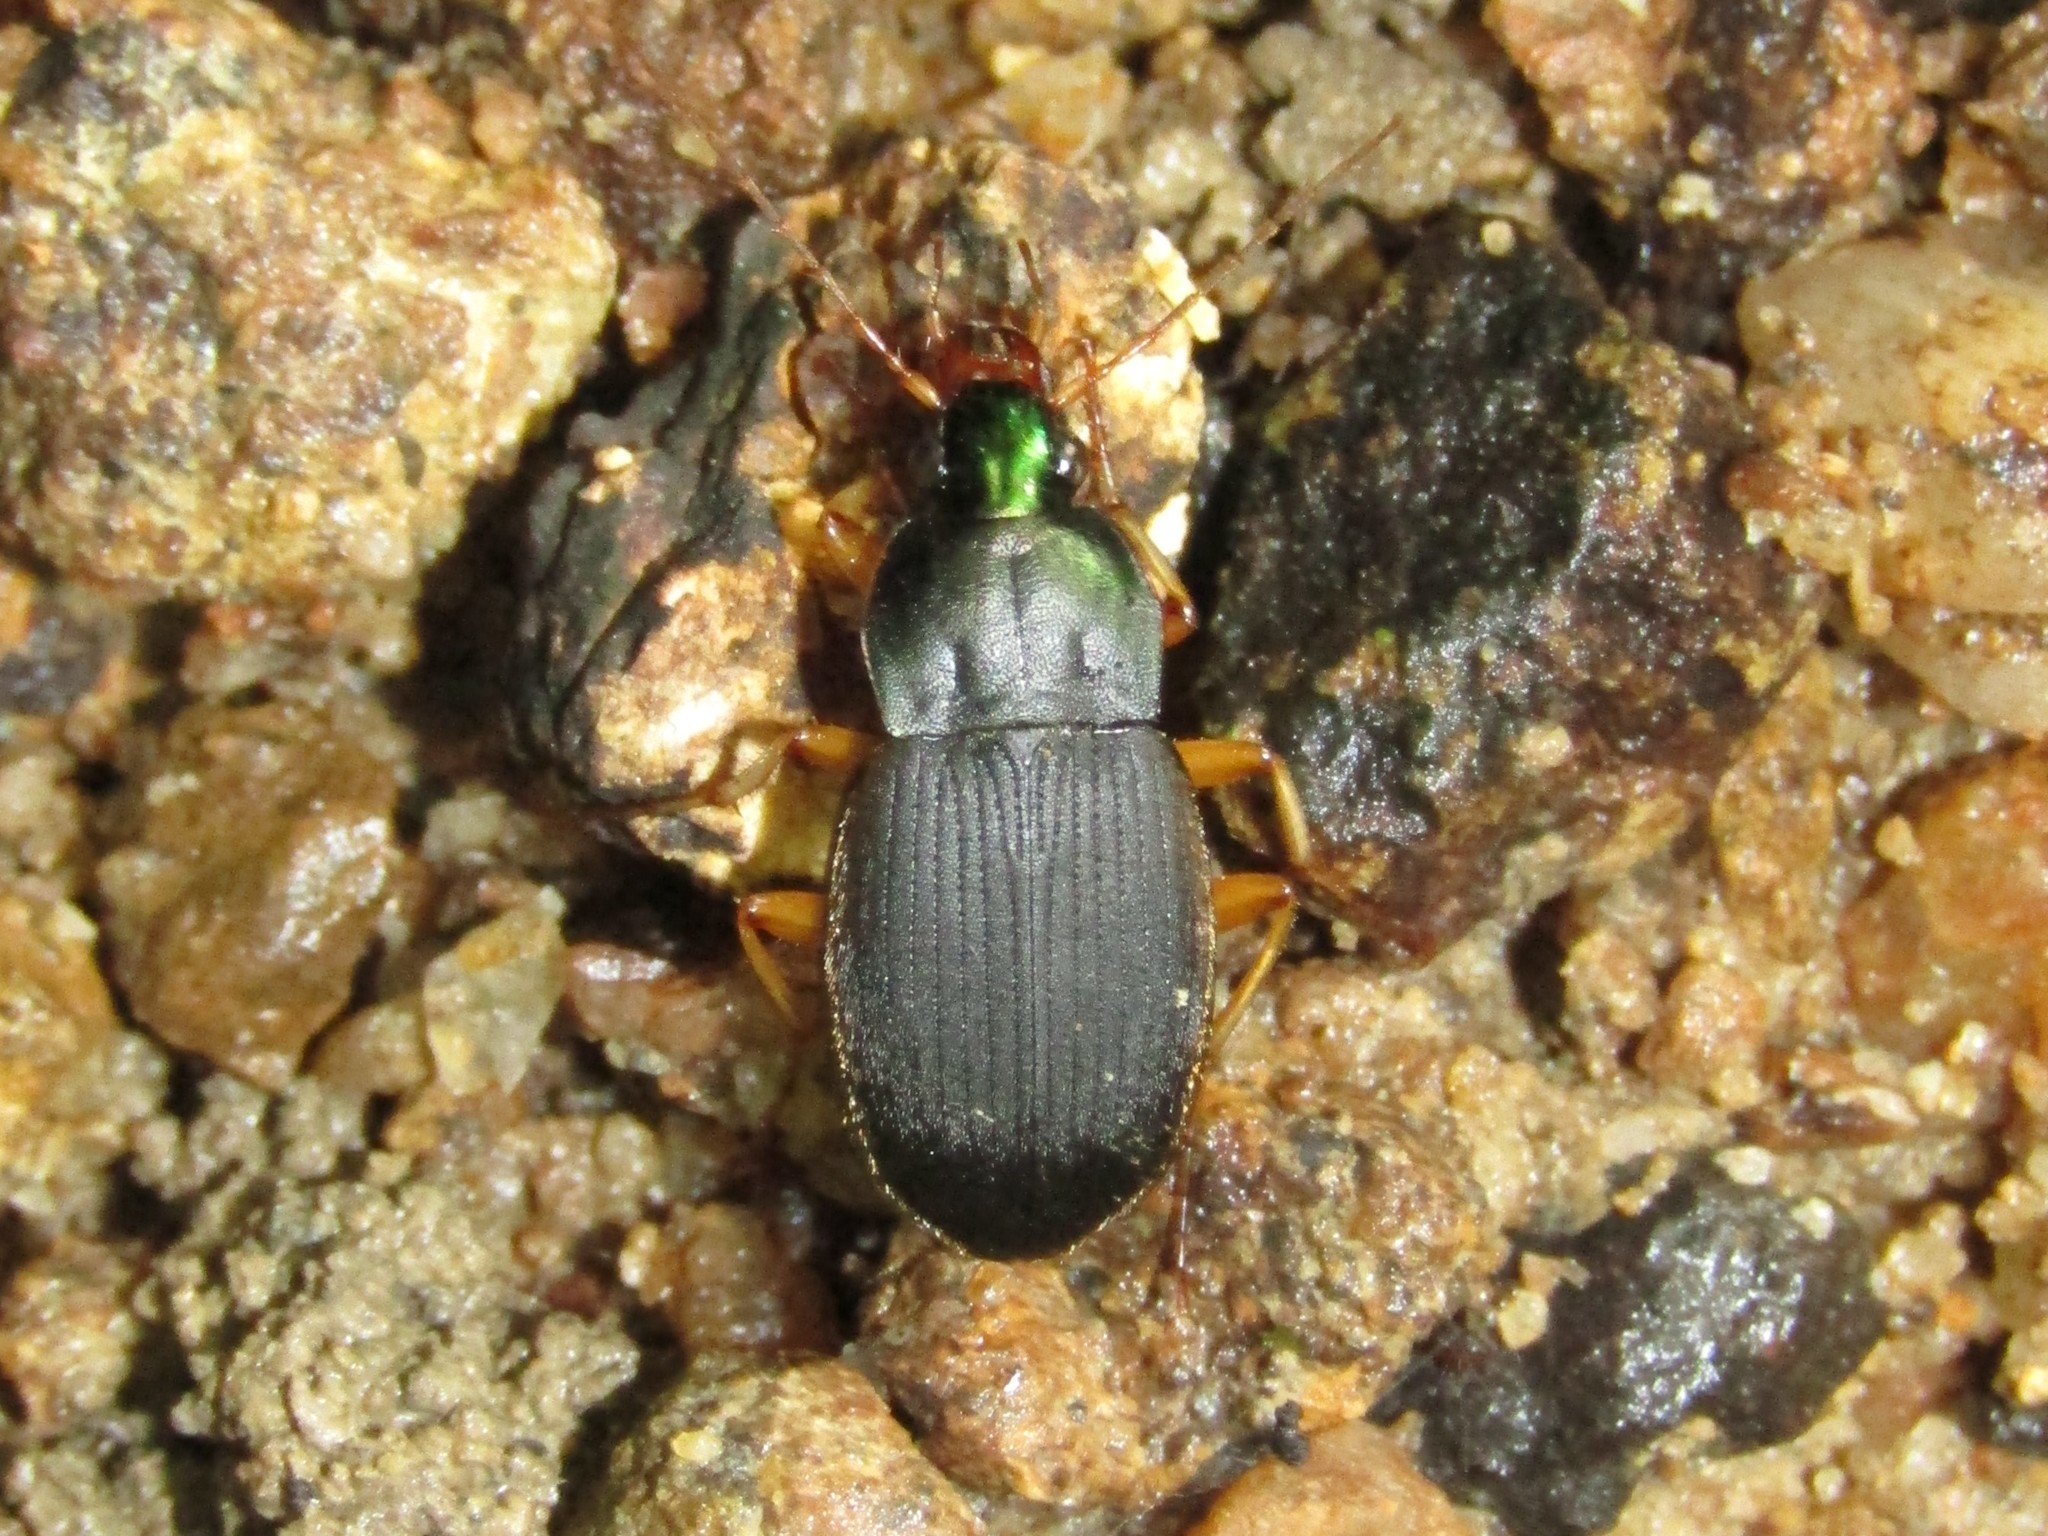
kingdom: Animalia
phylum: Arthropoda
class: Insecta
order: Coleoptera
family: Carabidae
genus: Chlaenius
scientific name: Chlaenius impunctifrons
